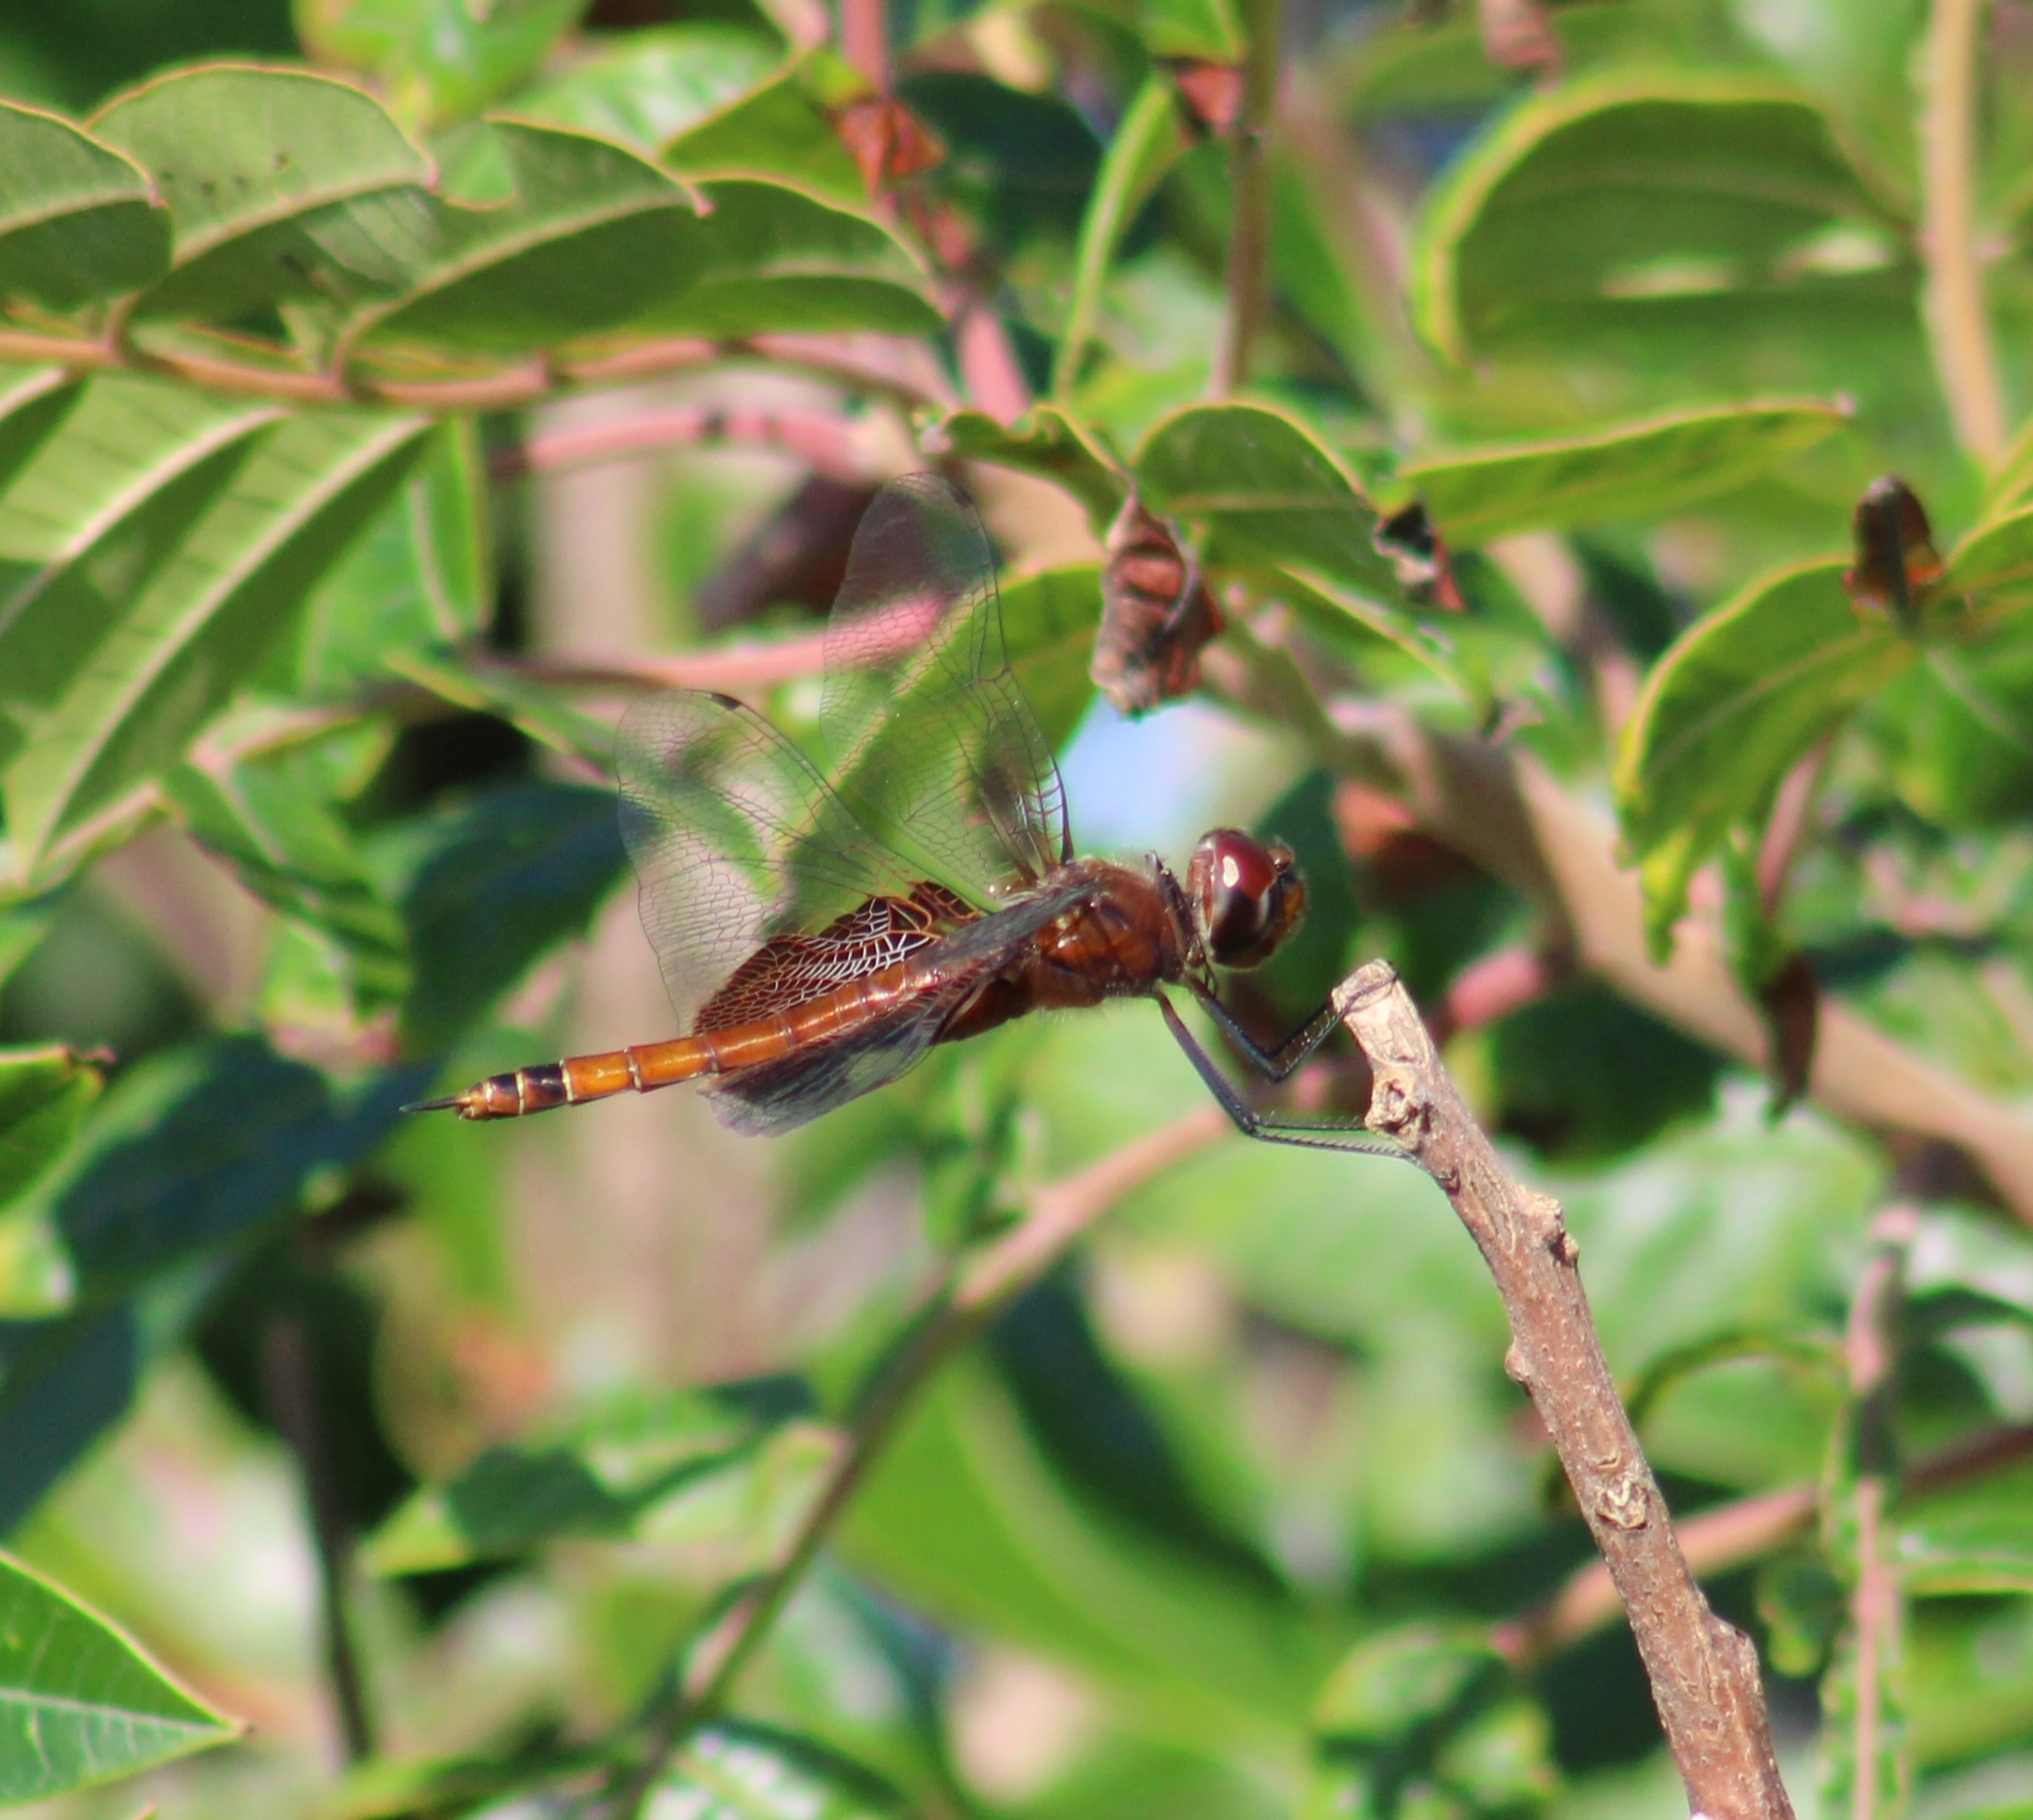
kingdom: Animalia
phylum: Arthropoda
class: Insecta
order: Odonata
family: Libellulidae
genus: Tramea
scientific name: Tramea carolina
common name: Carolina saddlebags
